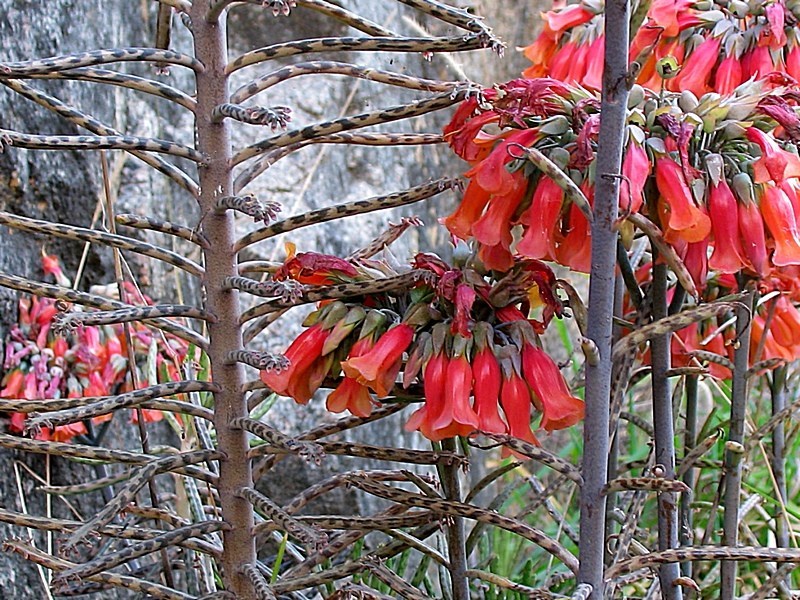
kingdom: Plantae
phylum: Tracheophyta
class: Magnoliopsida
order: Saxifragales
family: Crassulaceae
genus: Kalanchoe
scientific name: Kalanchoe delagoensis
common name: Chandelier plant
